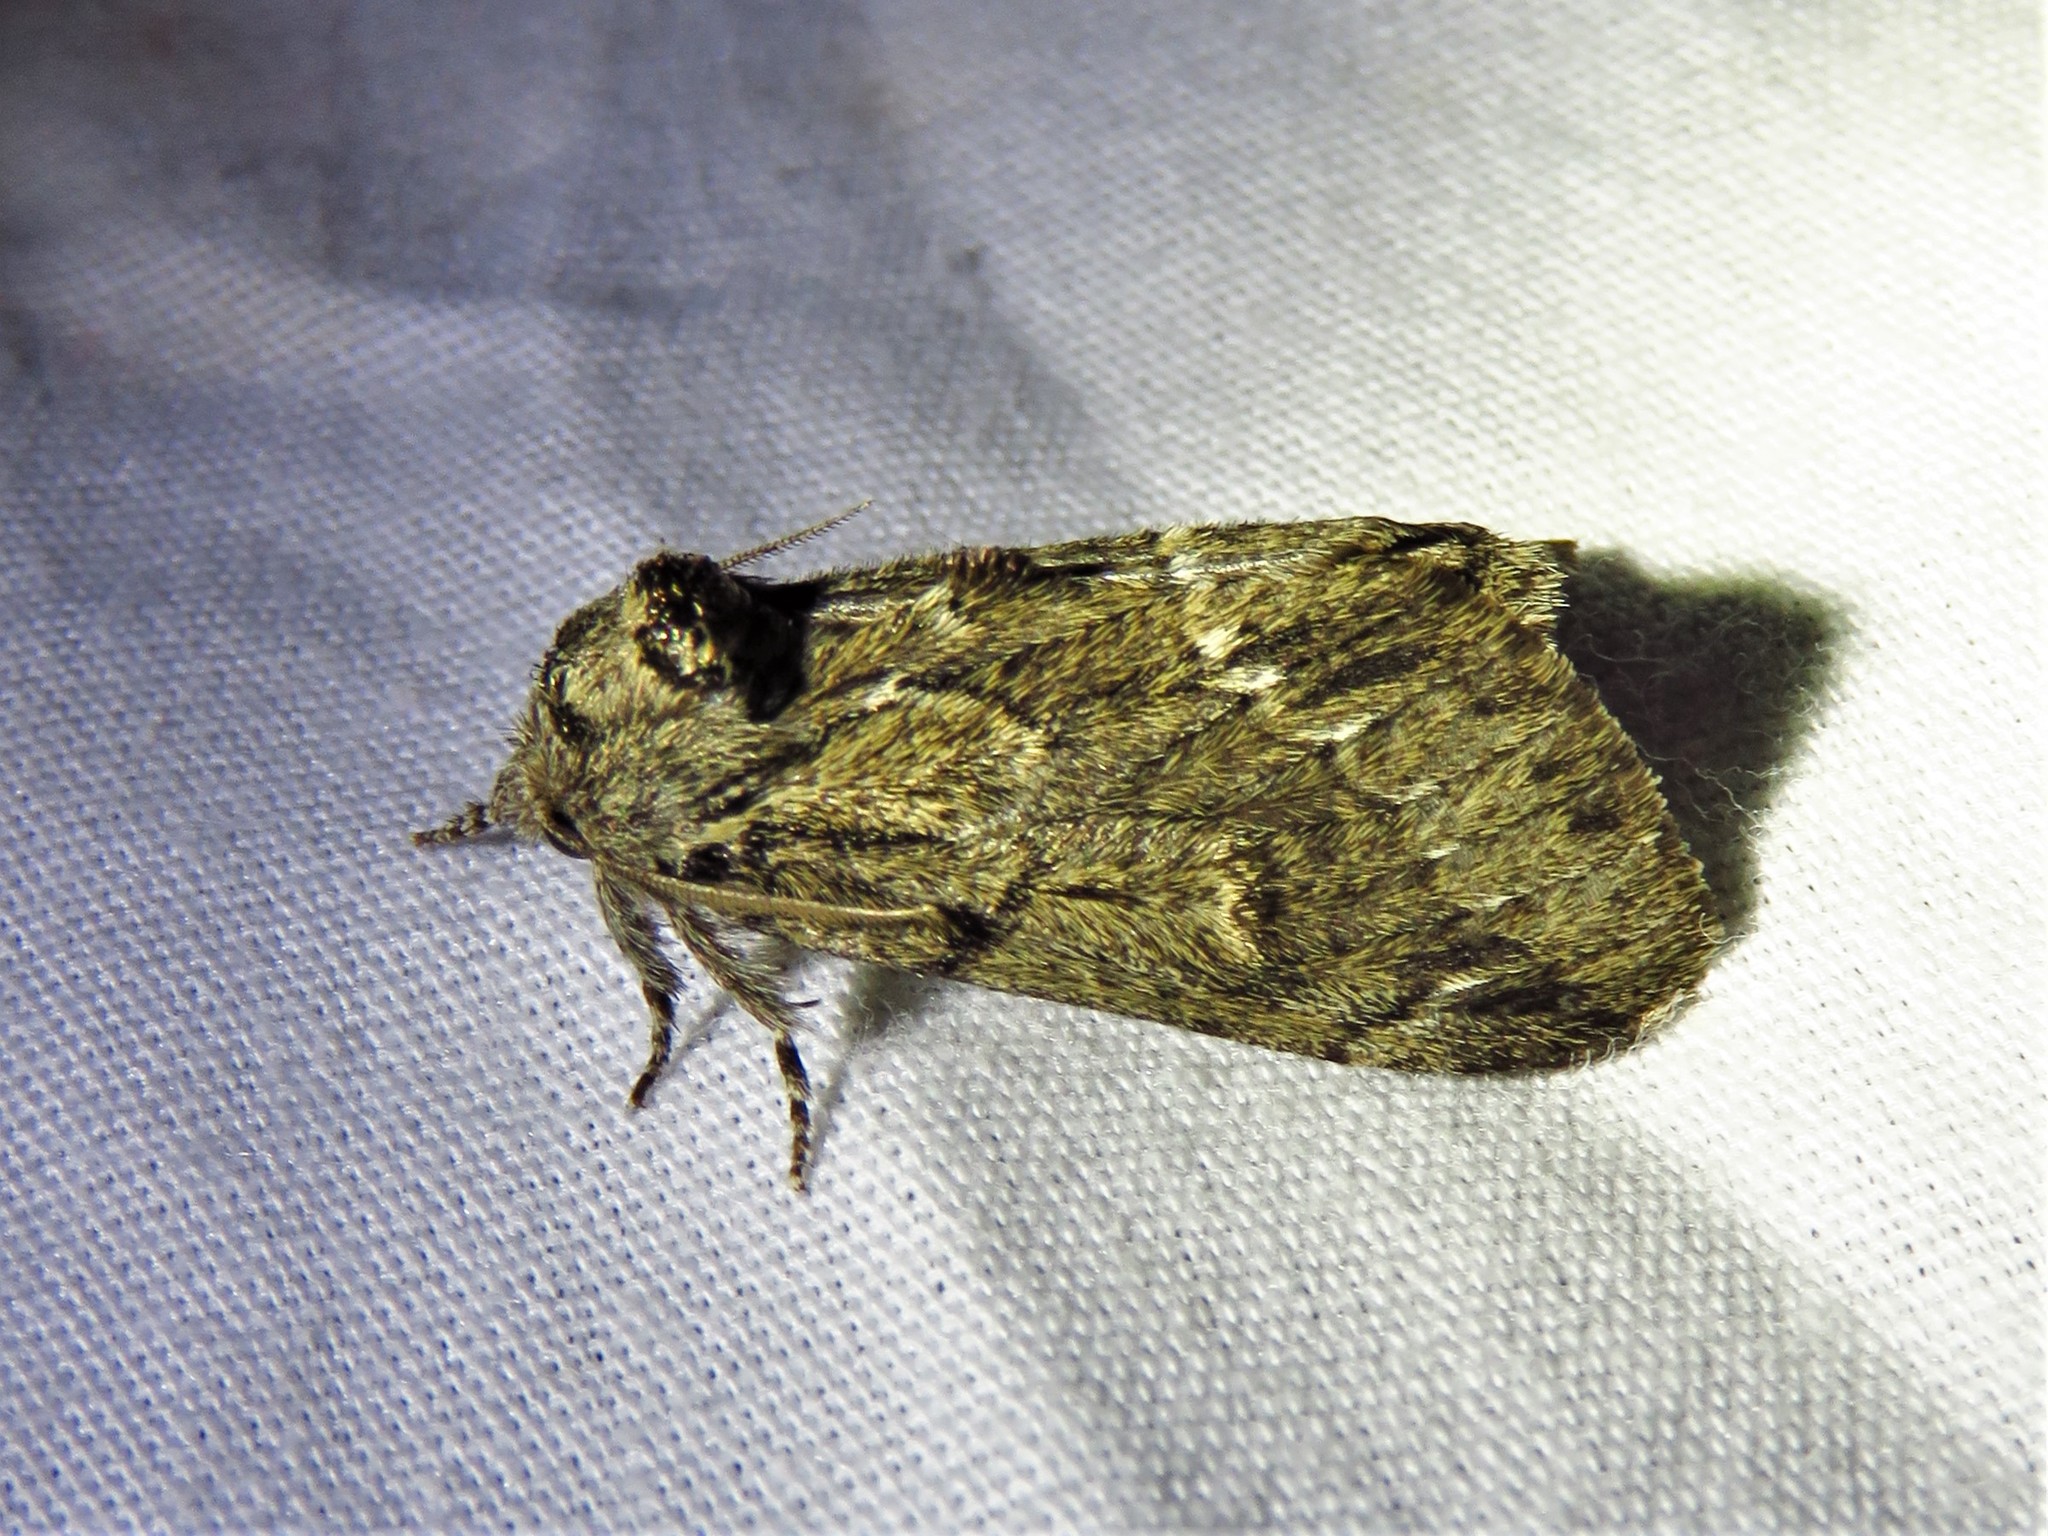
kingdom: Animalia
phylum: Arthropoda
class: Insecta
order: Lepidoptera
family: Notodontidae
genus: Paraeschra
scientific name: Paraeschra georgica
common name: Georgian prominent
